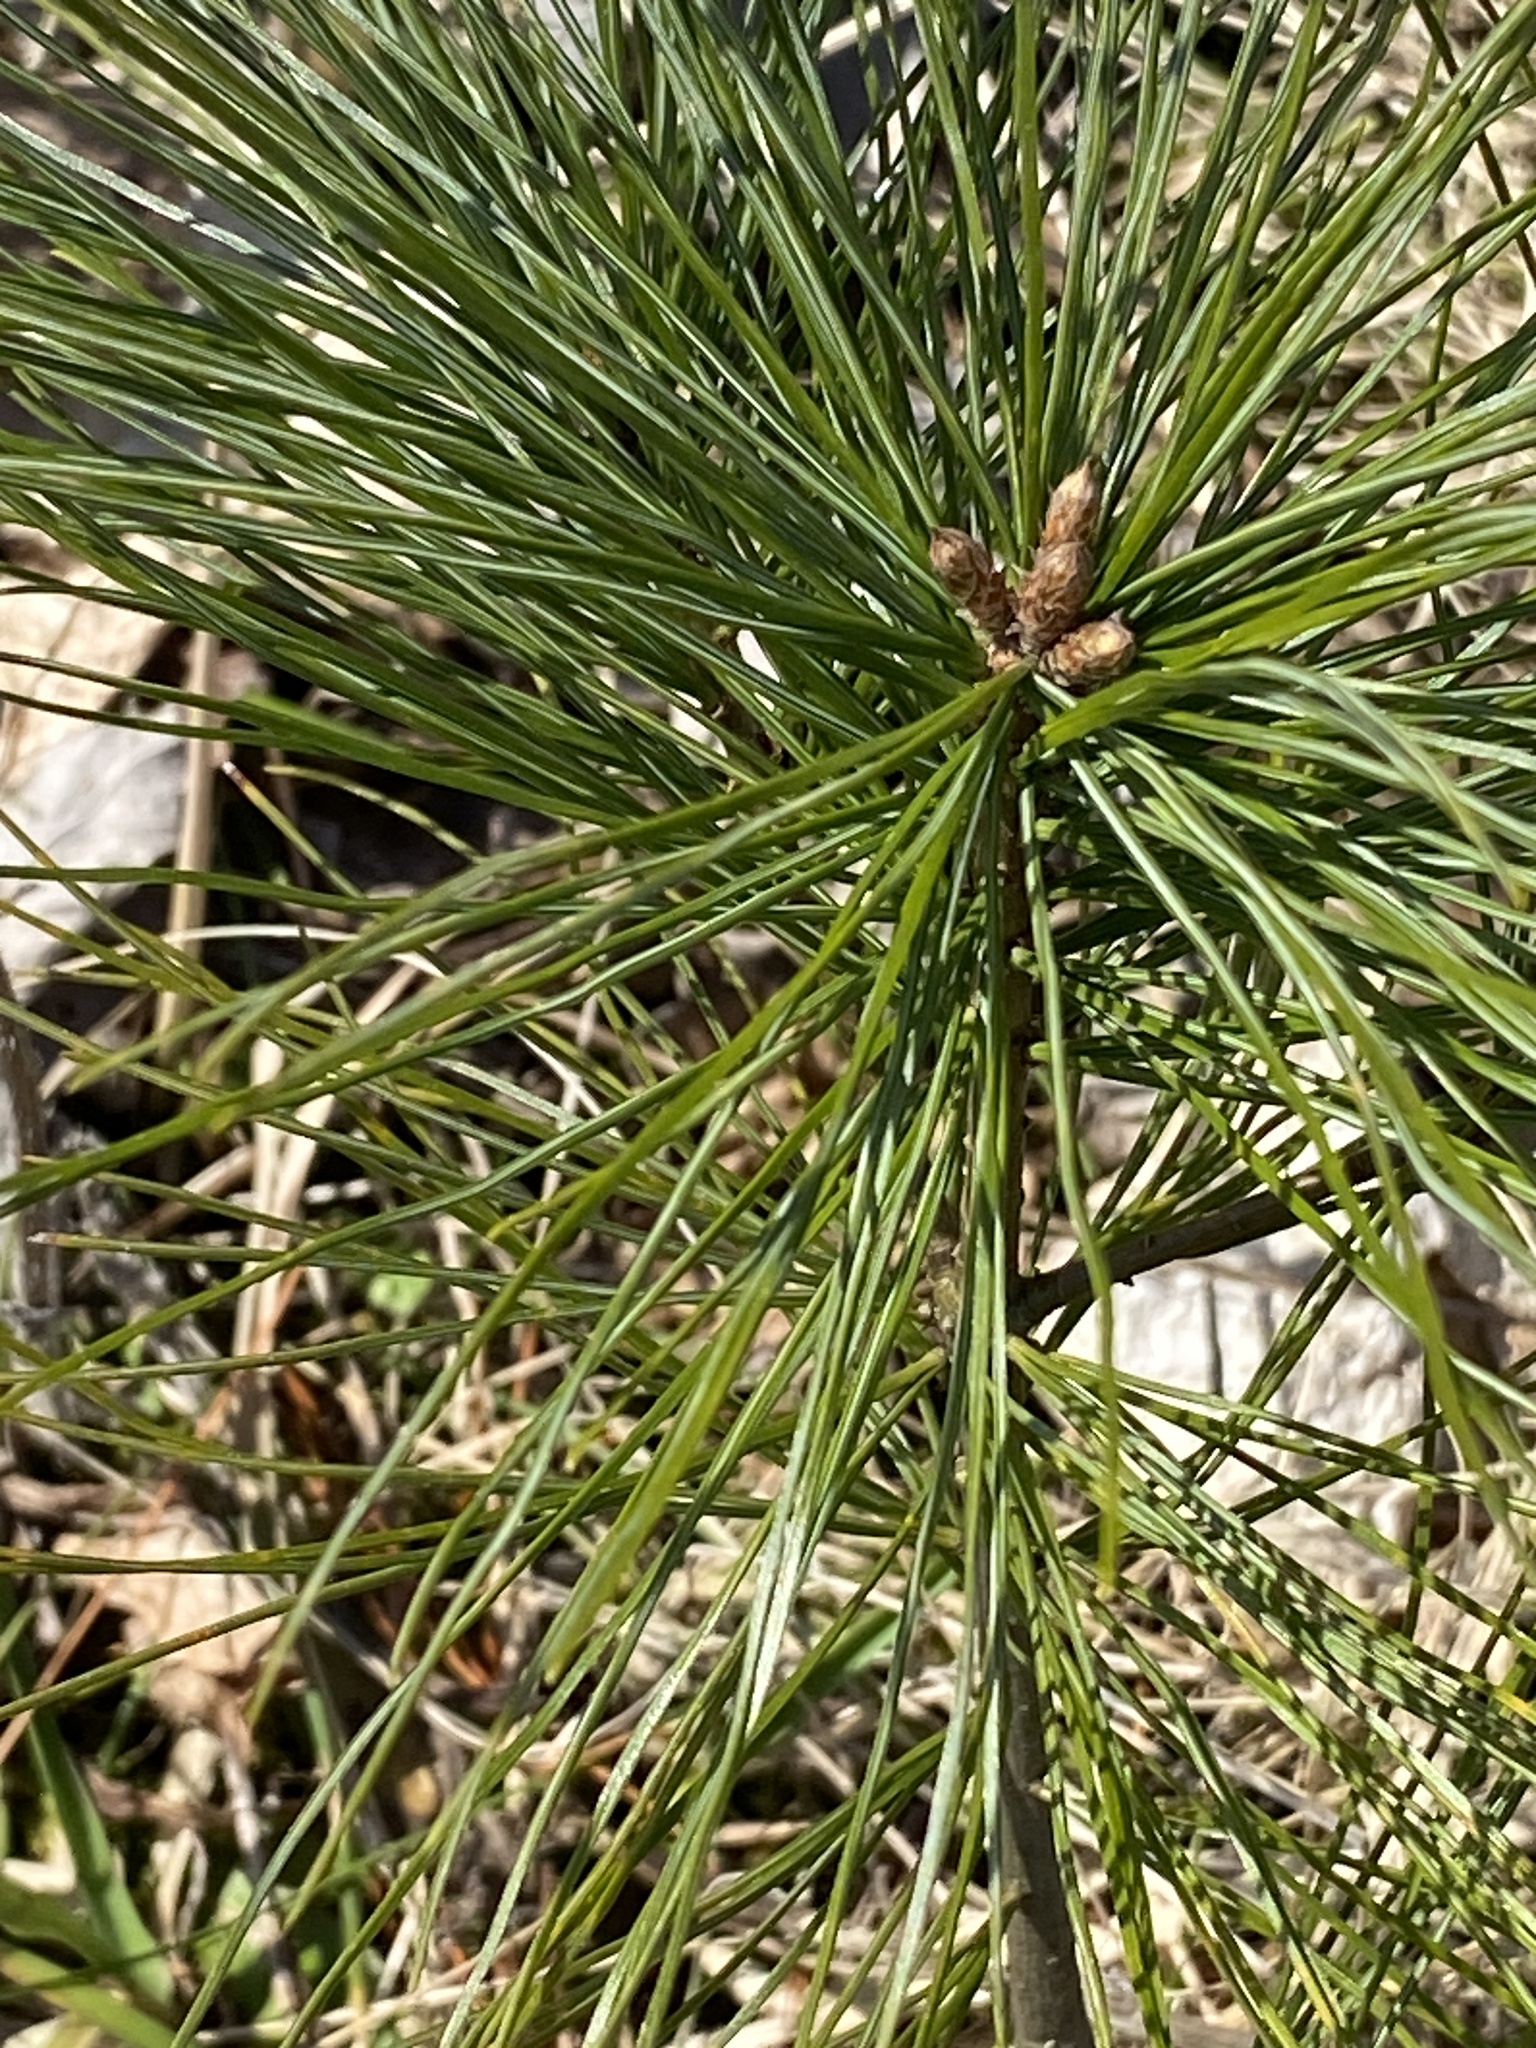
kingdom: Plantae
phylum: Tracheophyta
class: Pinopsida
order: Pinales
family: Pinaceae
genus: Pinus
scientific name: Pinus strobus
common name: Weymouth pine
